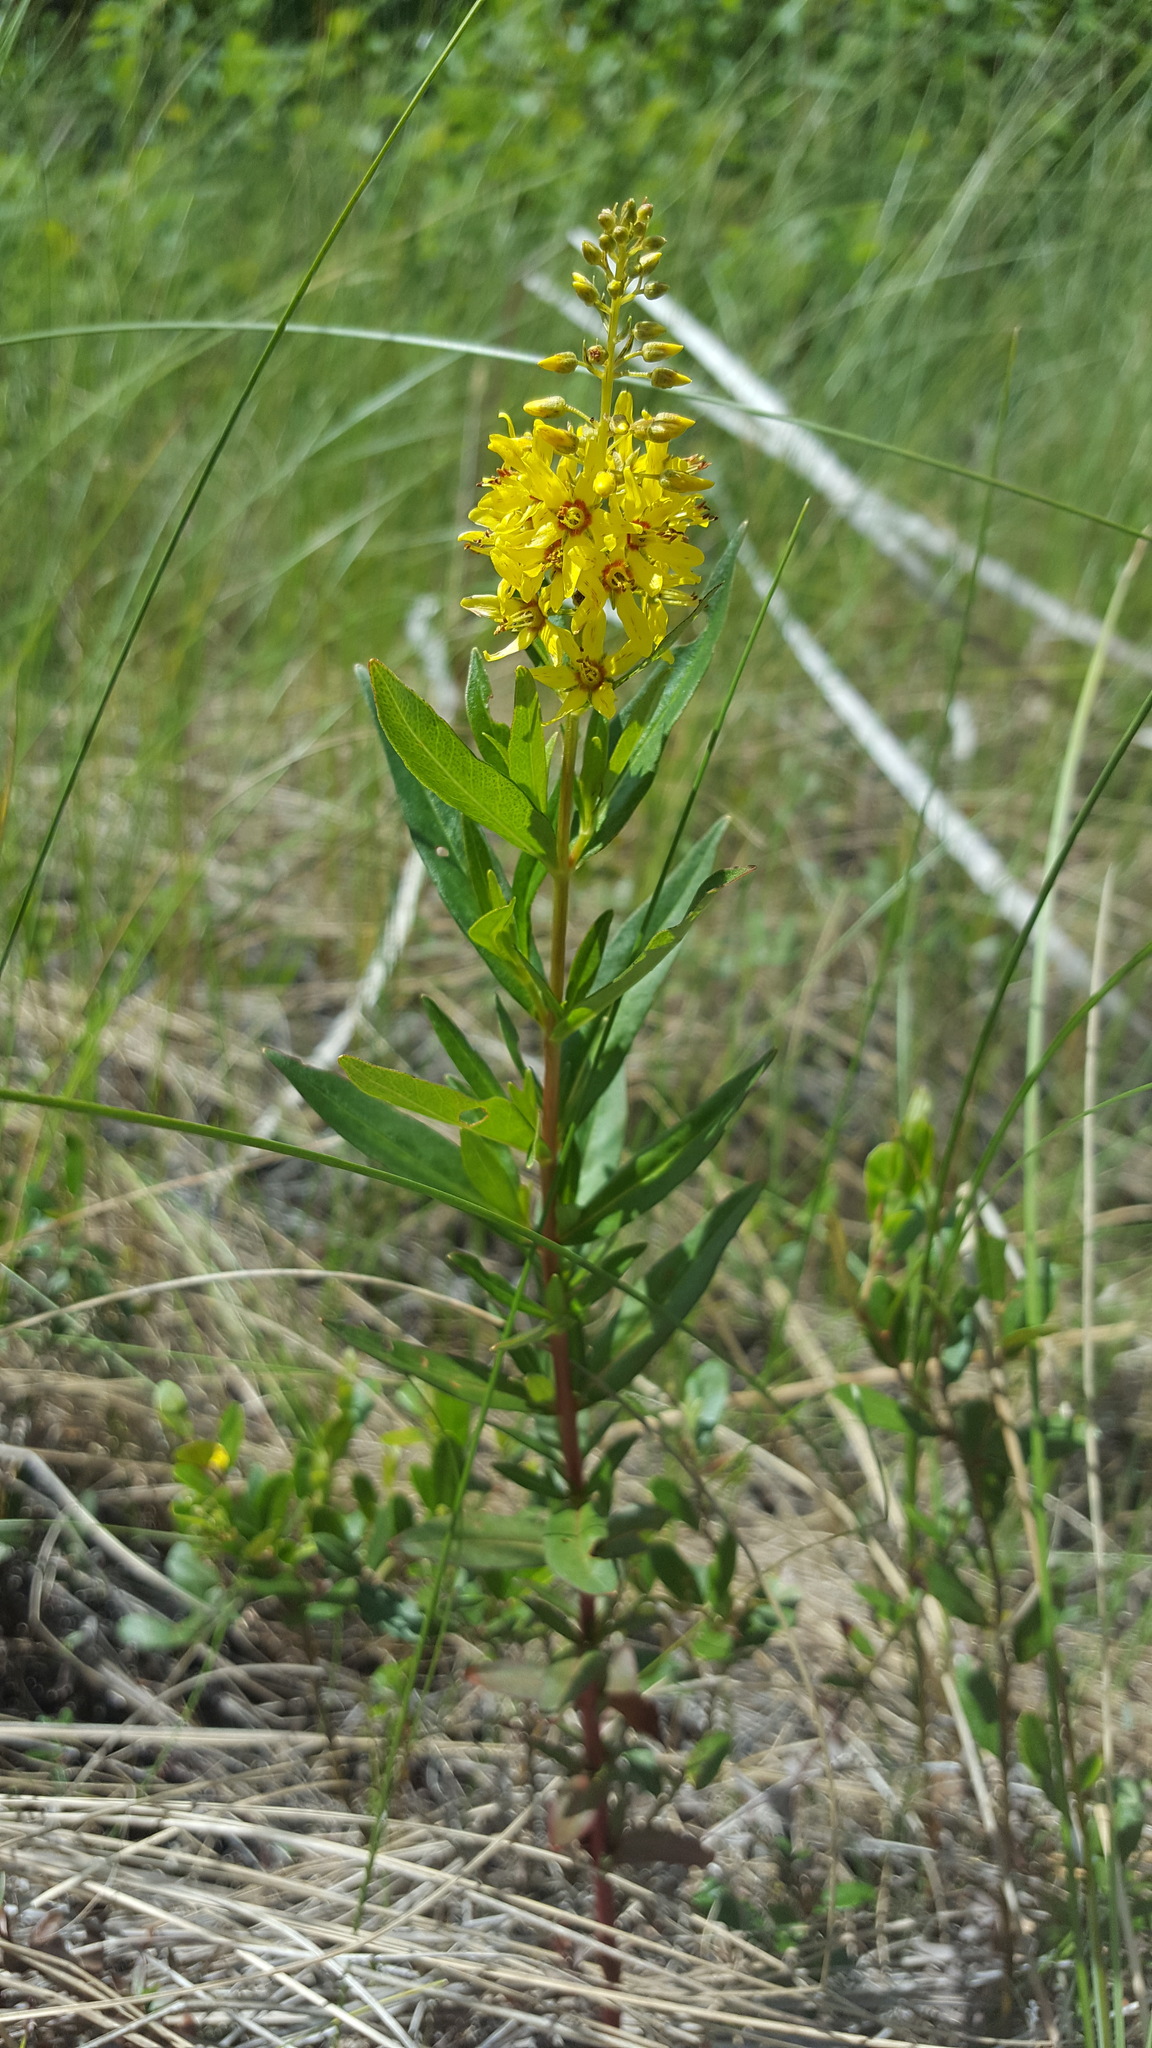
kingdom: Plantae
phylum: Tracheophyta
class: Magnoliopsida
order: Ericales
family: Primulaceae
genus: Lysimachia
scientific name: Lysimachia terrestris
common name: Lake loosestrife
